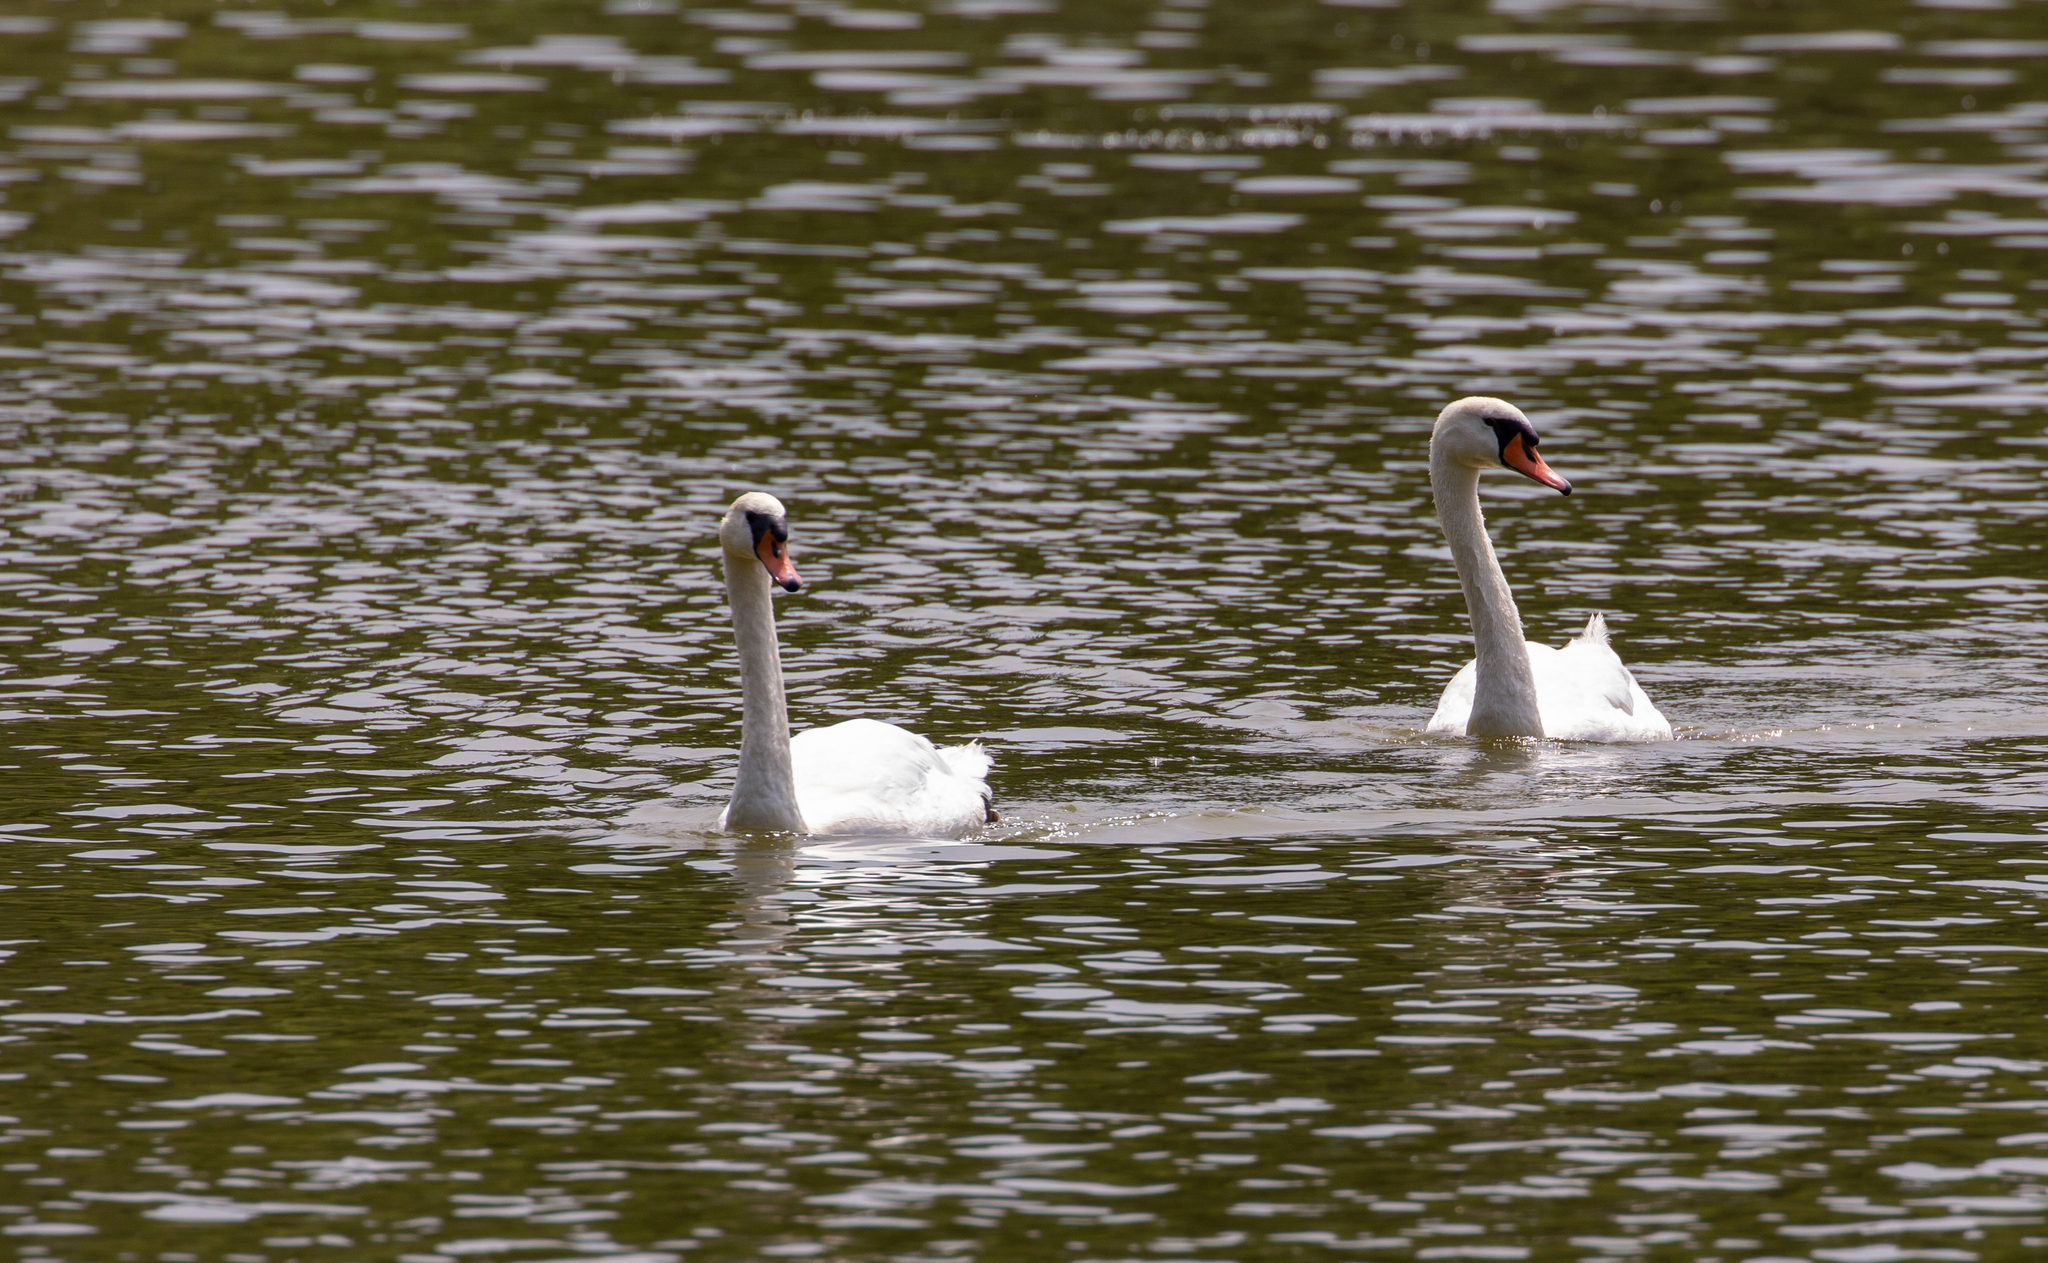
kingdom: Animalia
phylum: Chordata
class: Aves
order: Anseriformes
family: Anatidae
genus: Cygnus
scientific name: Cygnus olor
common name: Mute swan
